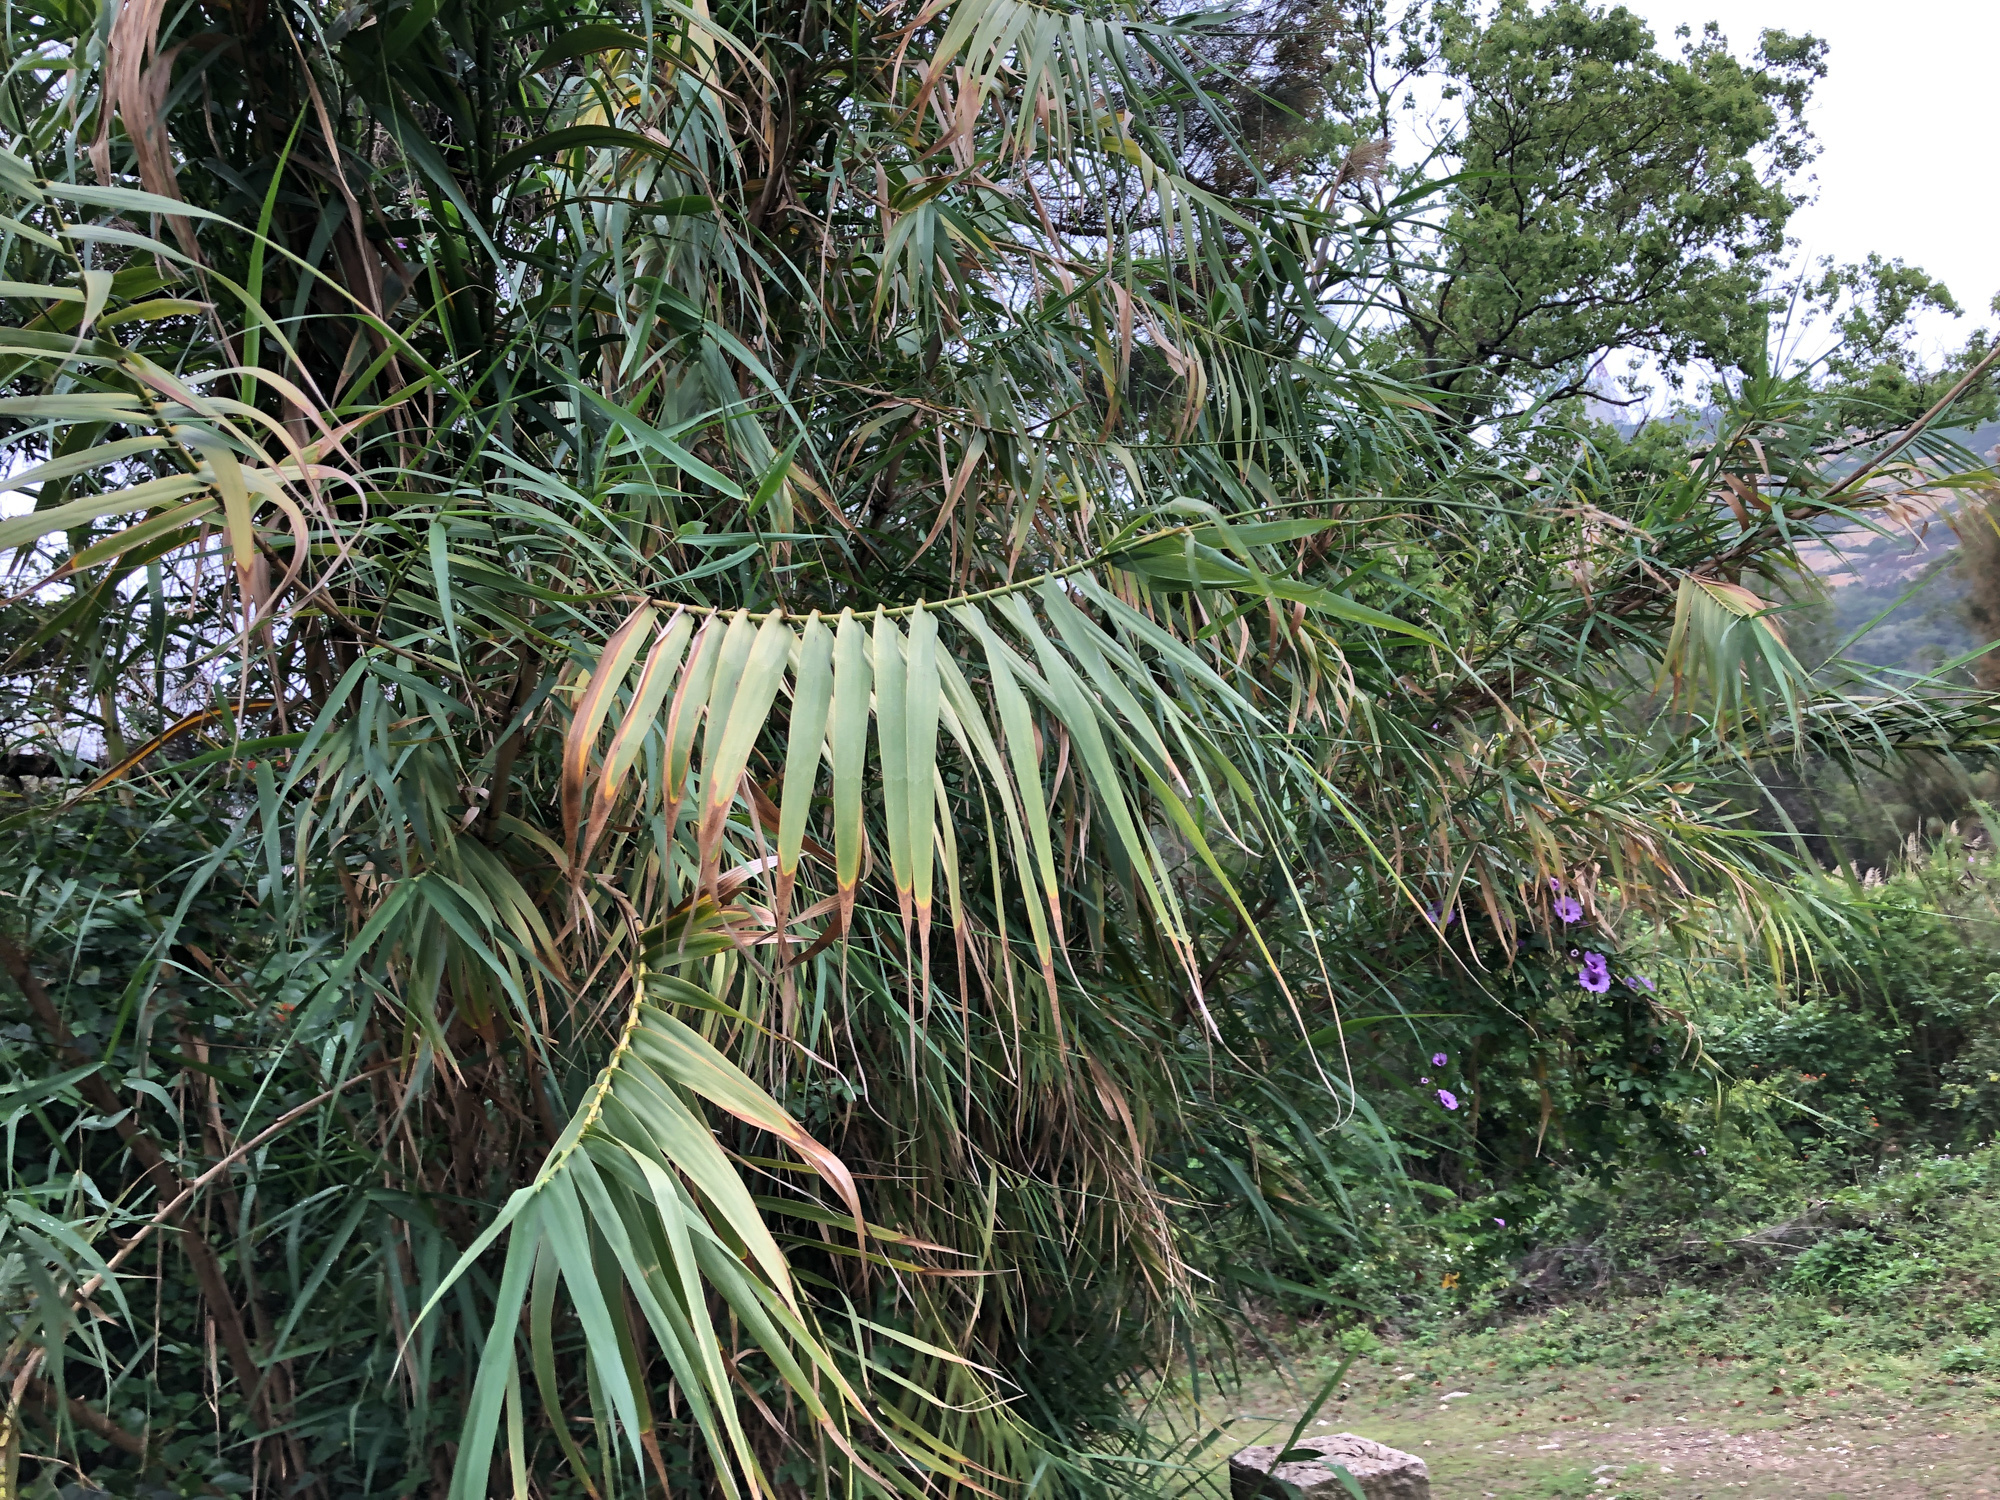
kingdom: Plantae
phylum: Tracheophyta
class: Liliopsida
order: Poales
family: Poaceae
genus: Arundo
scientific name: Arundo donax
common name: Giant reed
